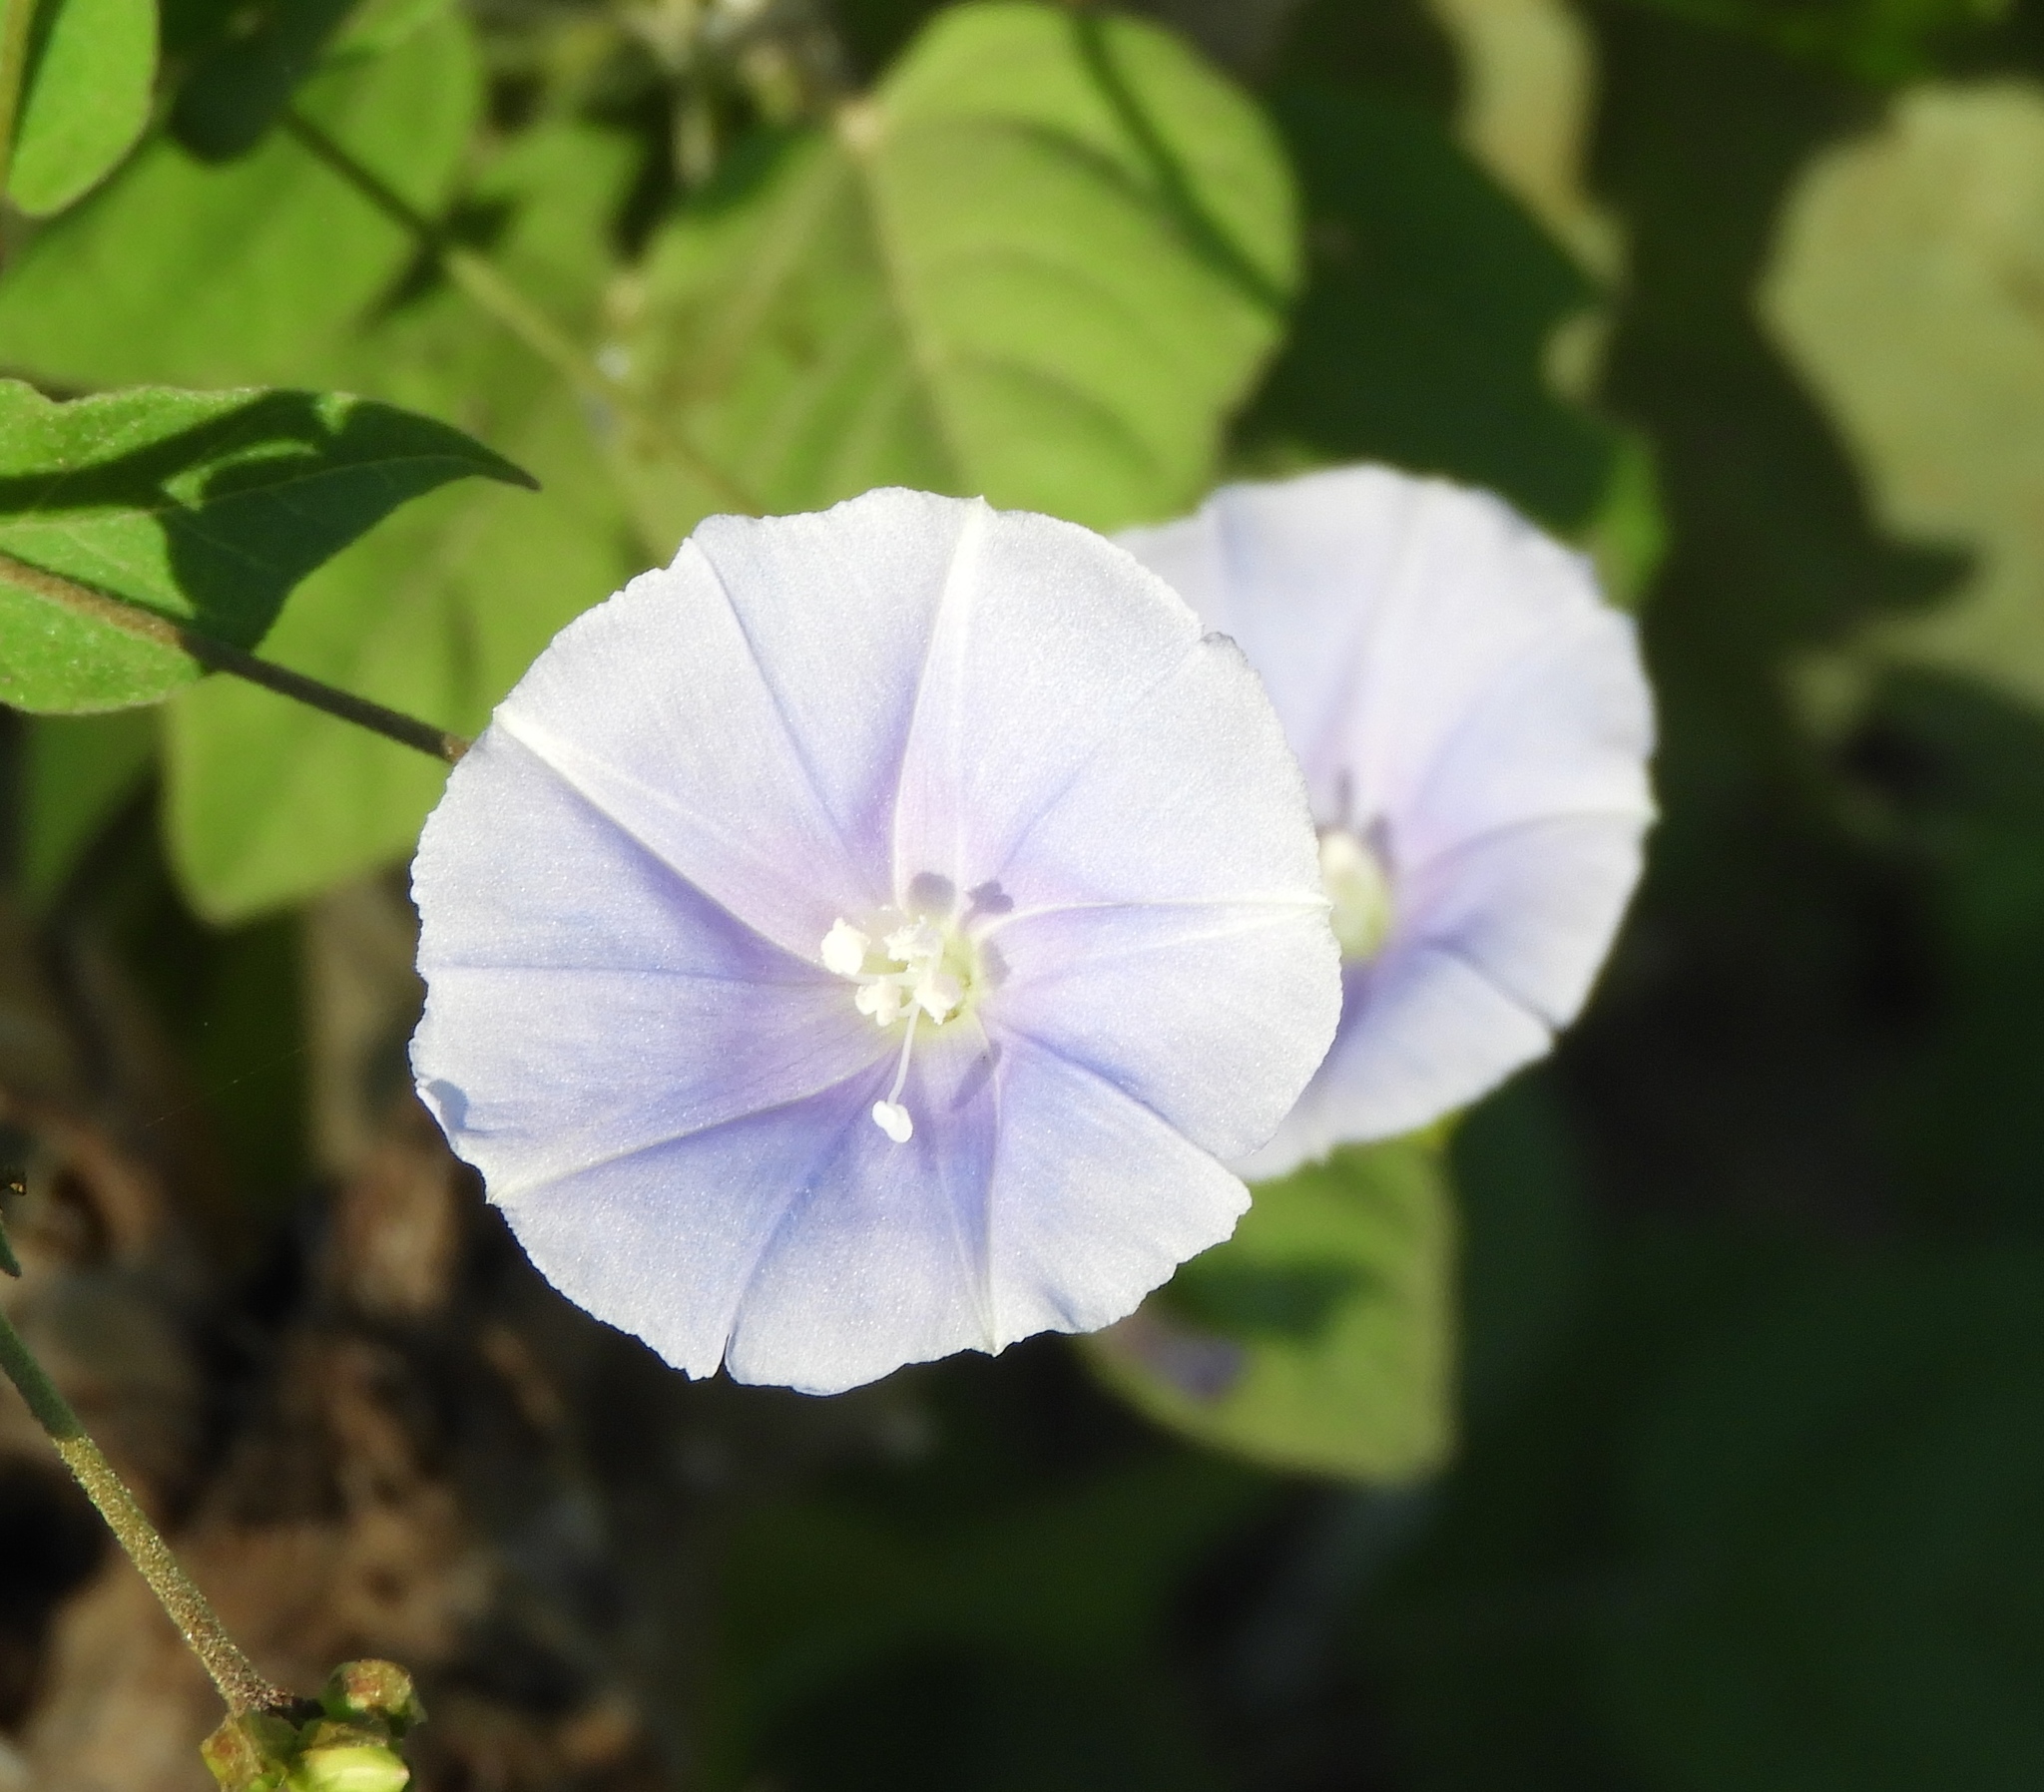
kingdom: Plantae
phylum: Tracheophyta
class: Magnoliopsida
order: Solanales
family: Convolvulaceae
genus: Jacquemontia
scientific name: Jacquemontia pentanthos
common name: Skyblue clustervine
